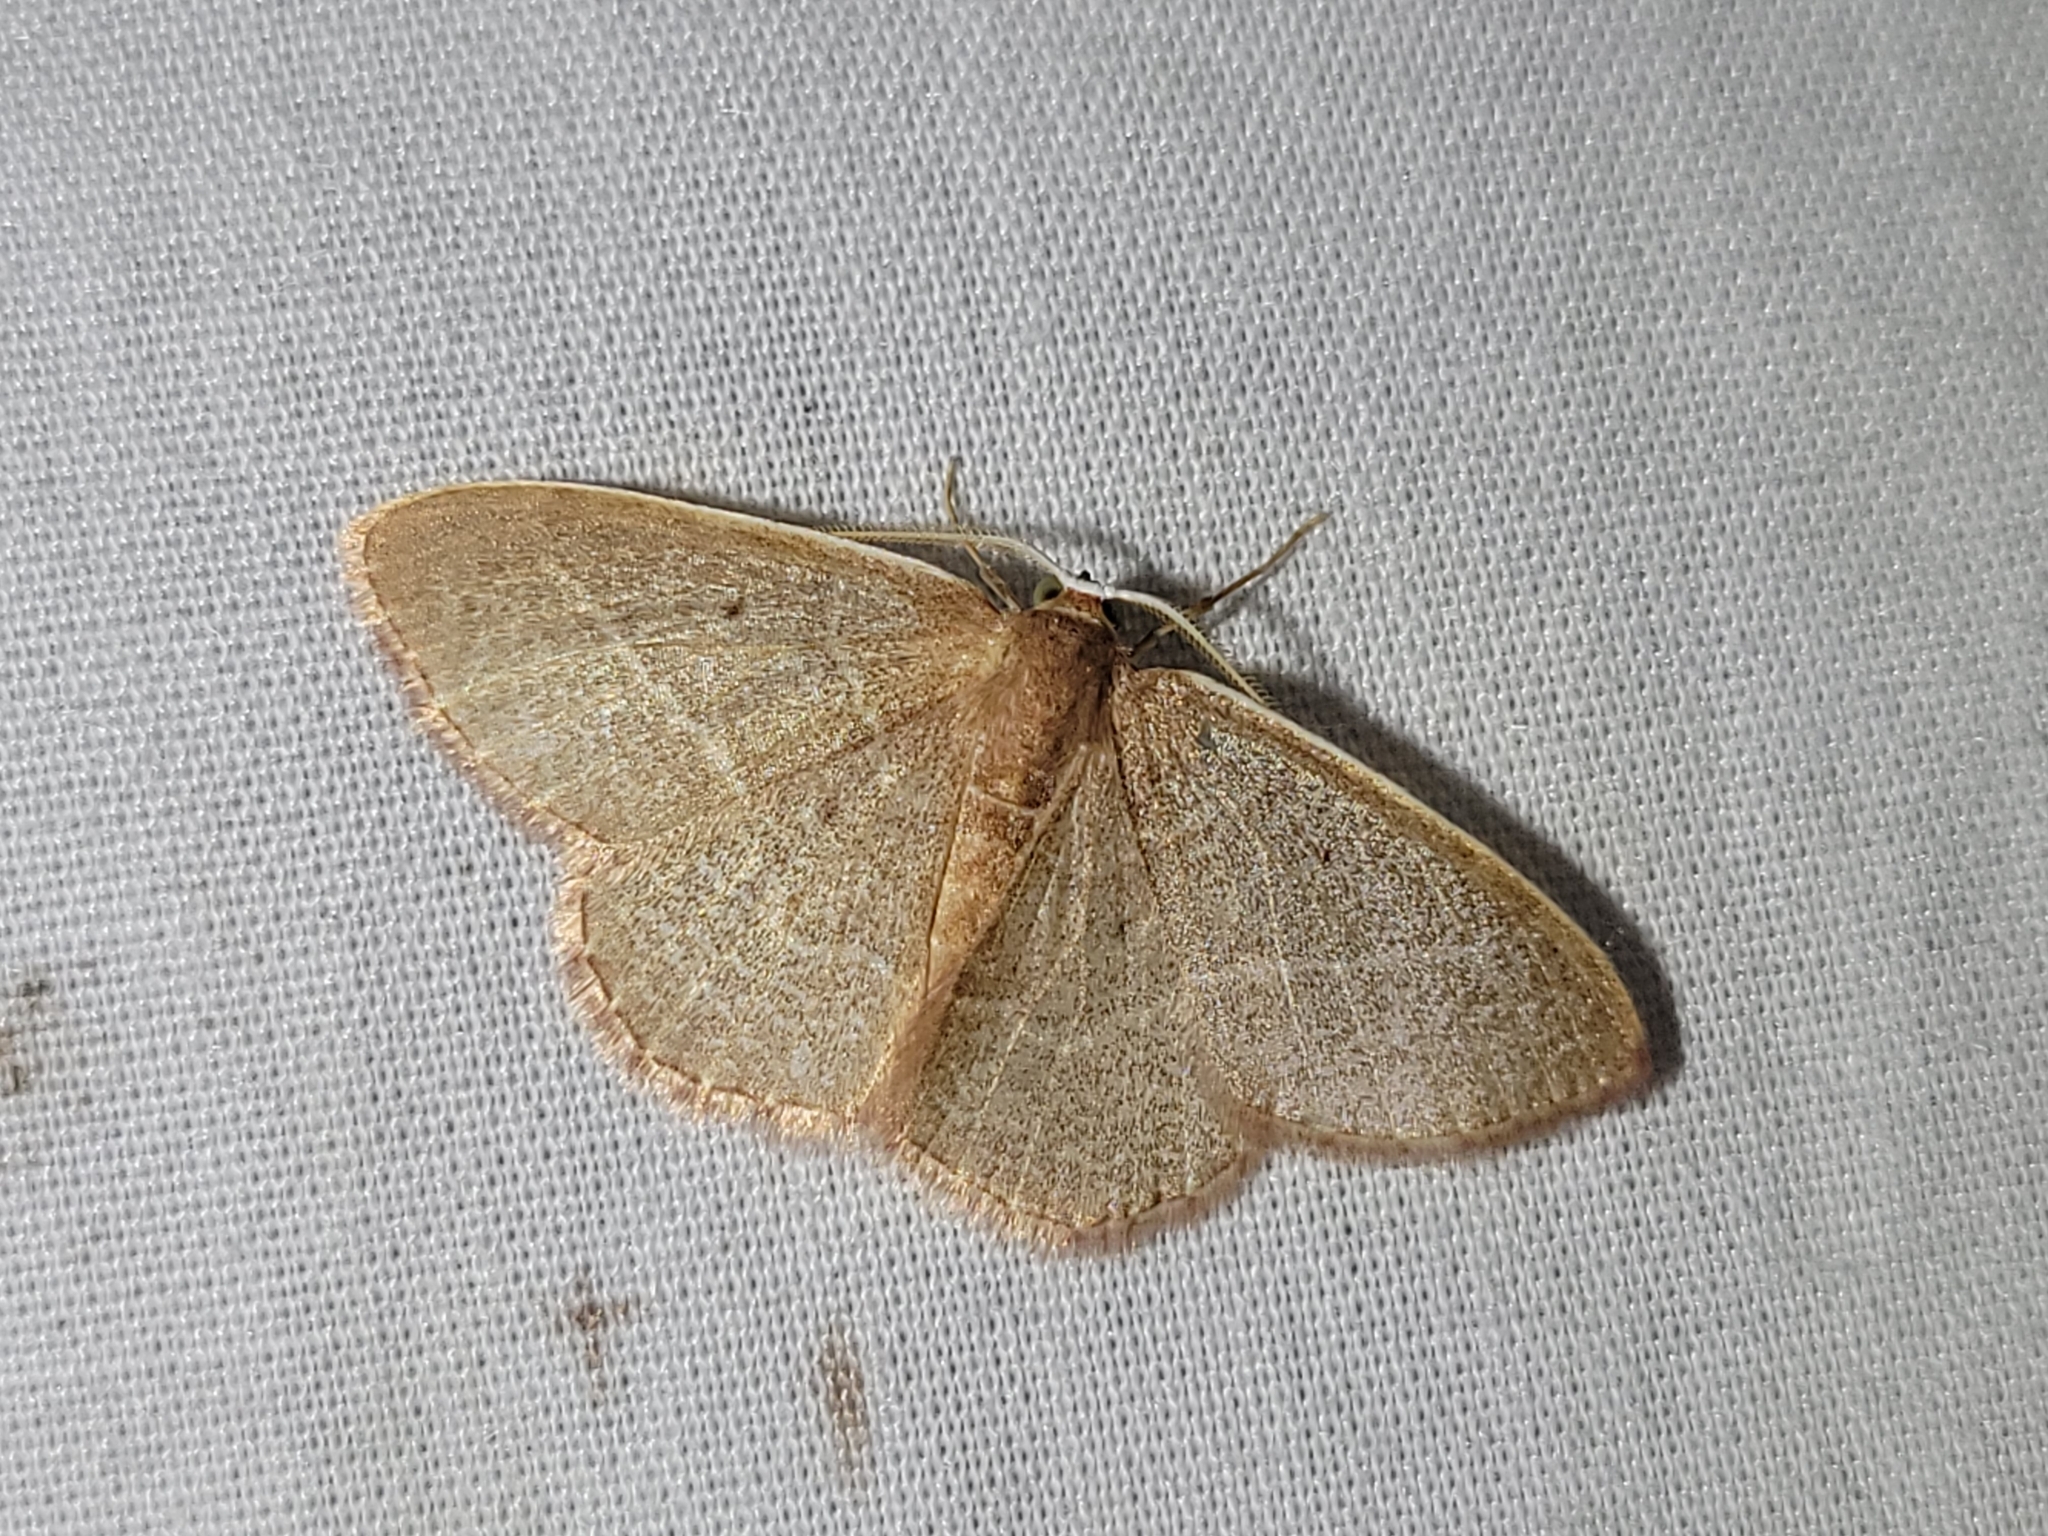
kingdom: Animalia
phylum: Arthropoda
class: Insecta
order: Lepidoptera
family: Geometridae
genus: Nemoria
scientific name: Nemoria bistriaria
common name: Red-fringed emerald
